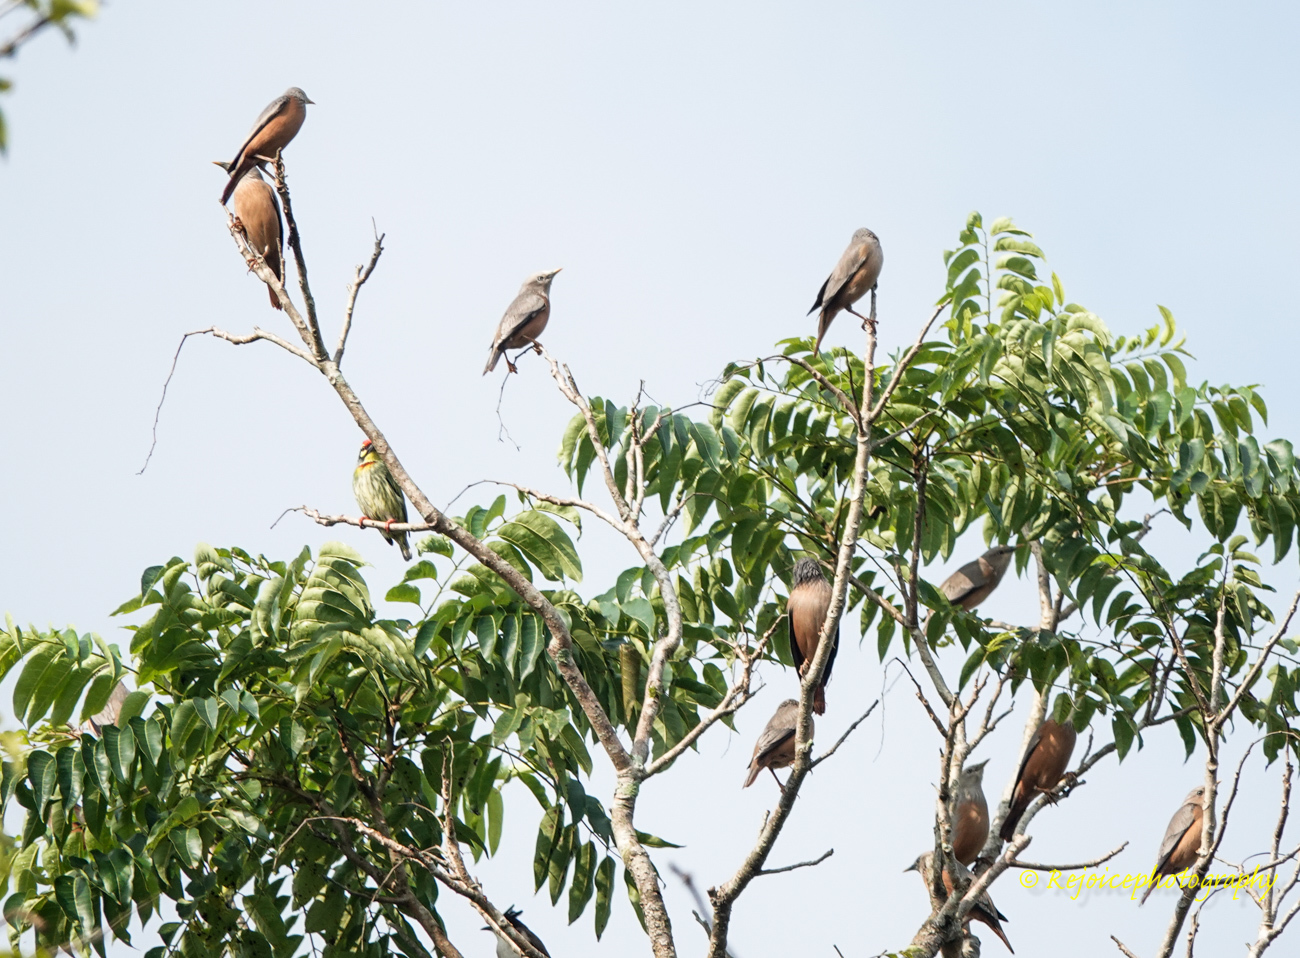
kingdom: Animalia
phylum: Chordata
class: Aves
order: Passeriformes
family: Sturnidae
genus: Sturnia
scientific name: Sturnia malabarica
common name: Chestnut-tailed starling
